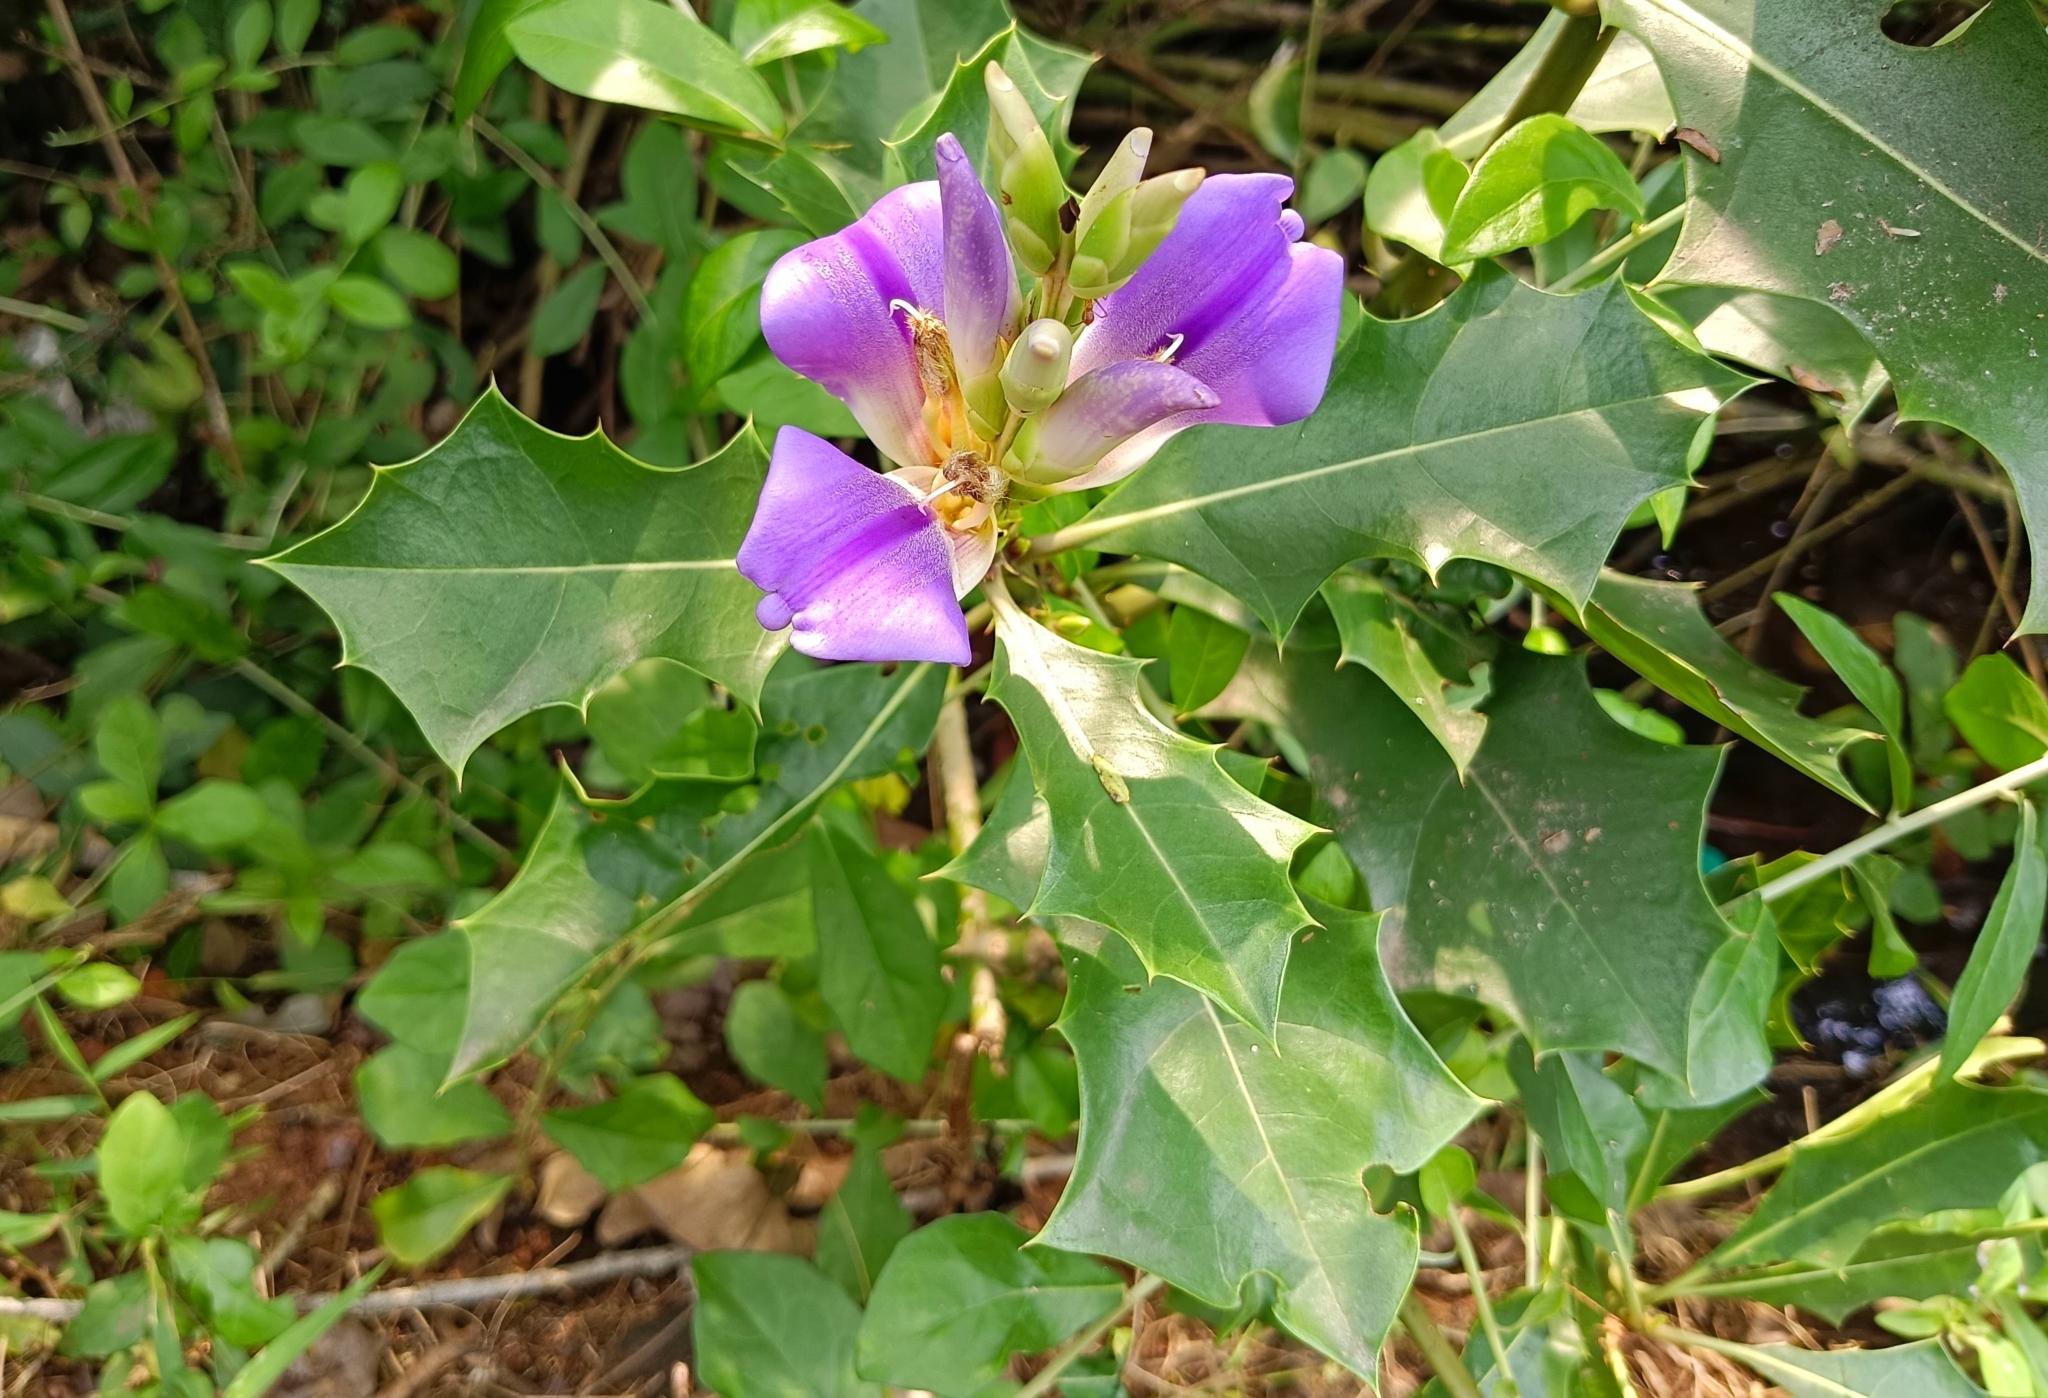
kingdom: Plantae
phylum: Tracheophyta
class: Magnoliopsida
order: Lamiales
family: Acanthaceae
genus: Acanthus
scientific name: Acanthus ilicifolius
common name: Holy mangrove
